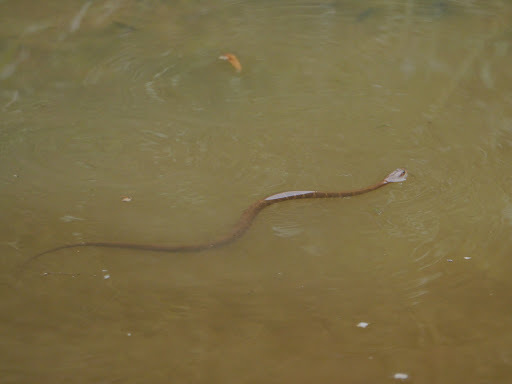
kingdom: Animalia
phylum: Chordata
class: Squamata
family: Colubridae
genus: Nerodia
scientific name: Nerodia sipedon
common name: Northern water snake
